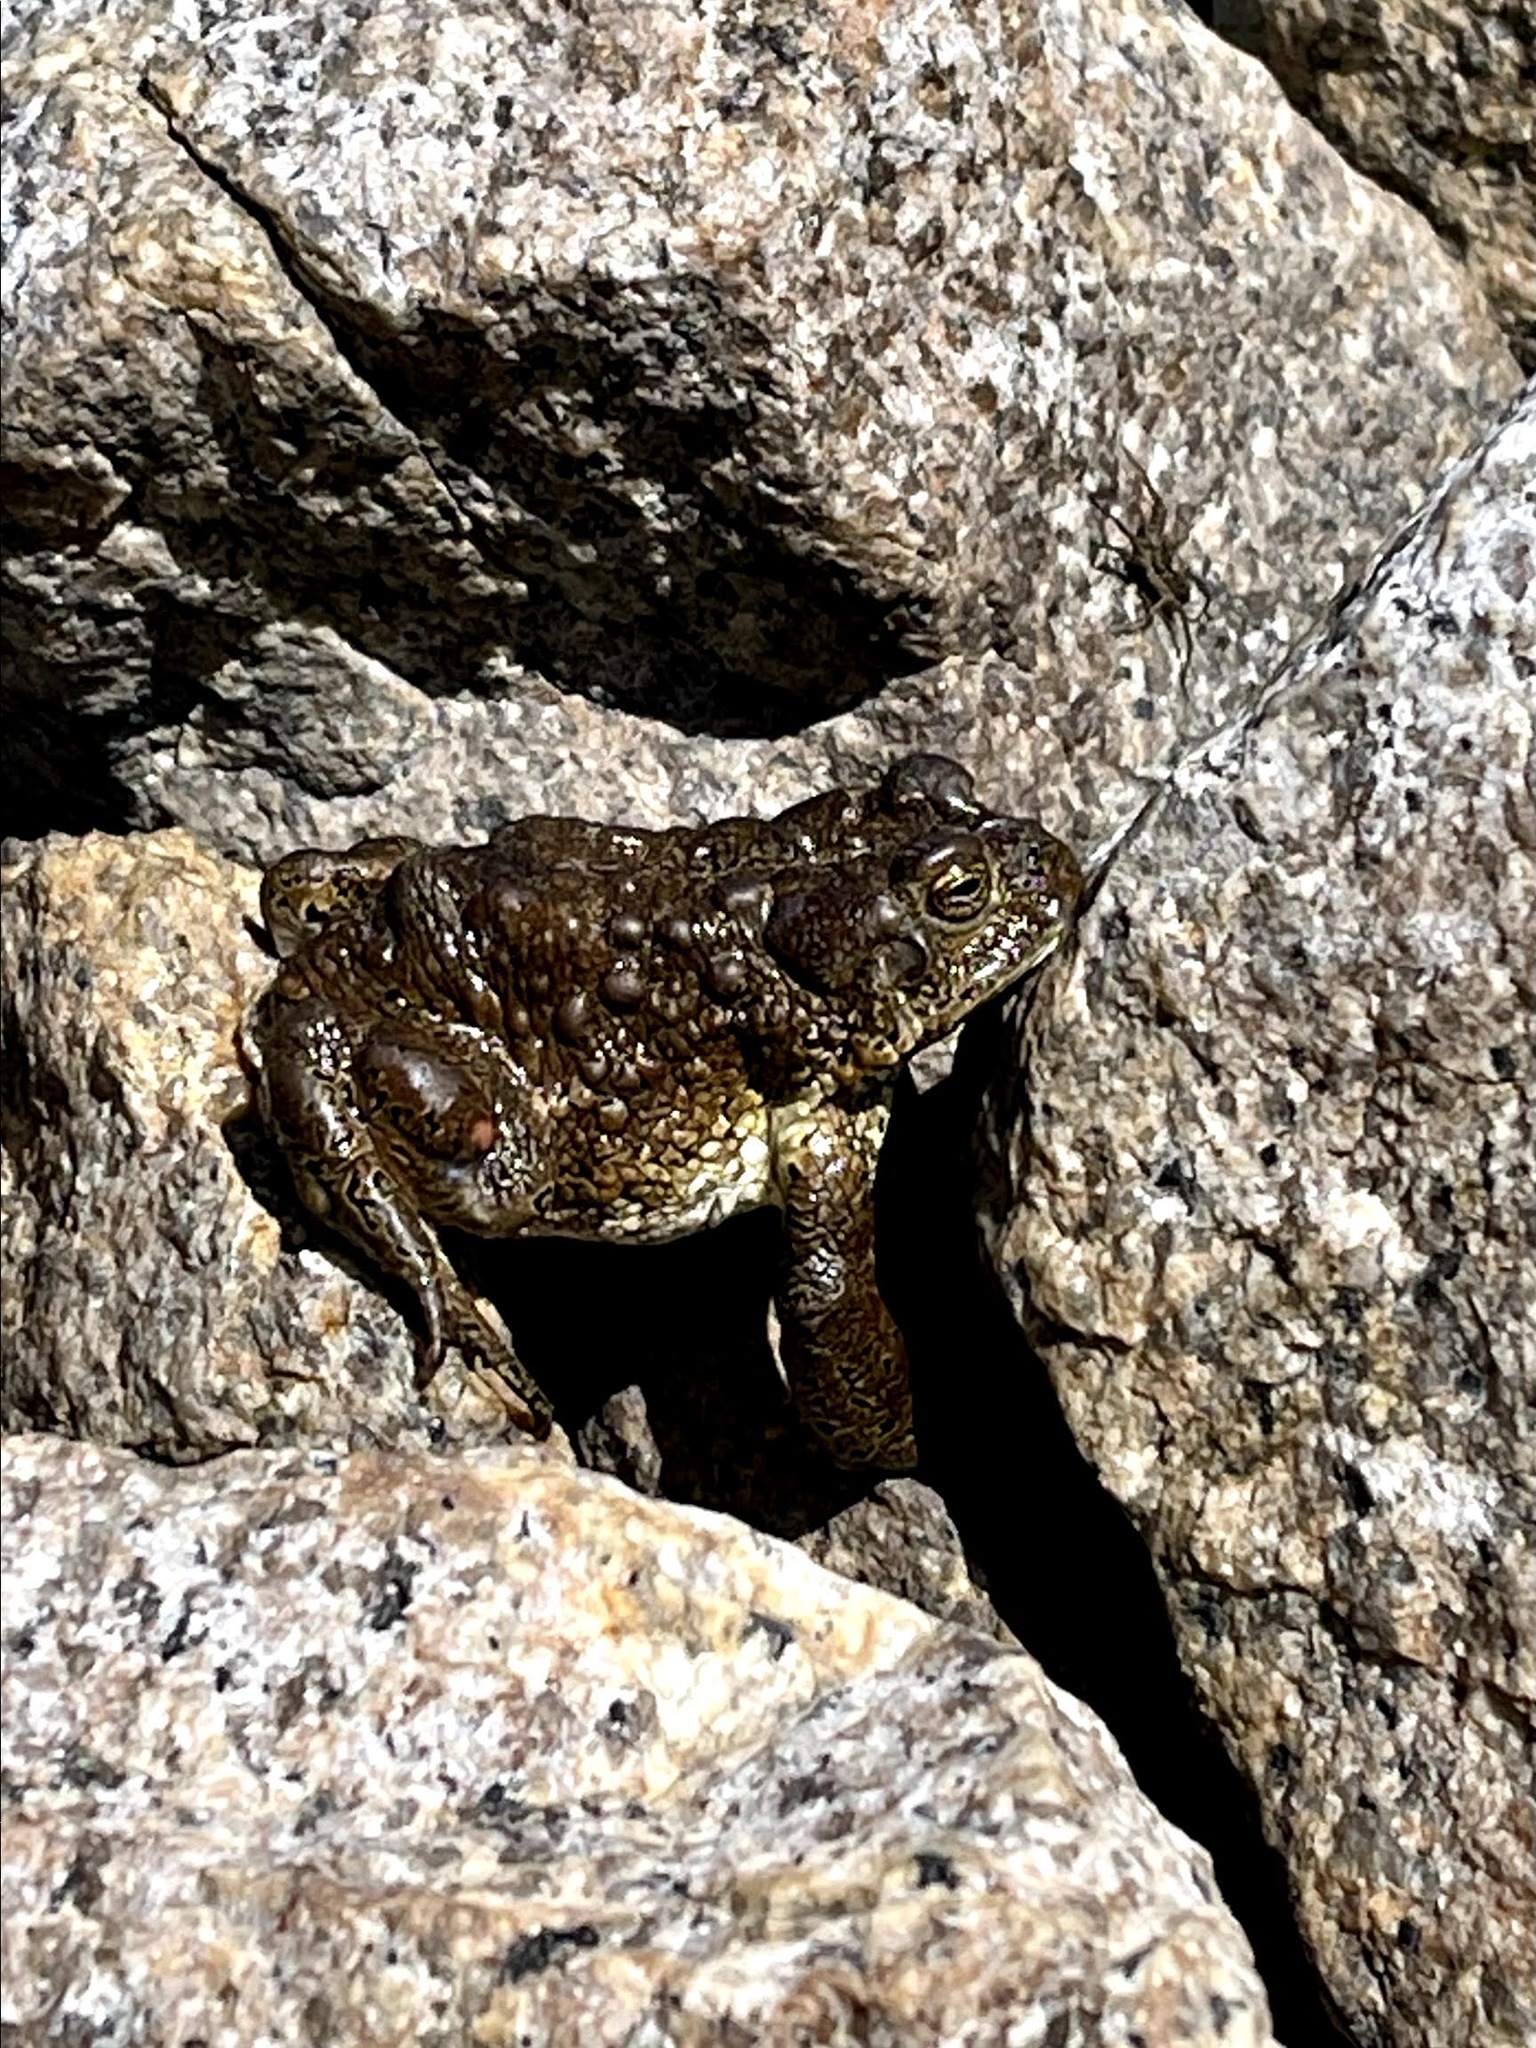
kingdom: Animalia
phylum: Chordata
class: Amphibia
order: Anura
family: Bufonidae
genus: Anaxyrus
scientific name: Anaxyrus canorus
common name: Yosemite toad
